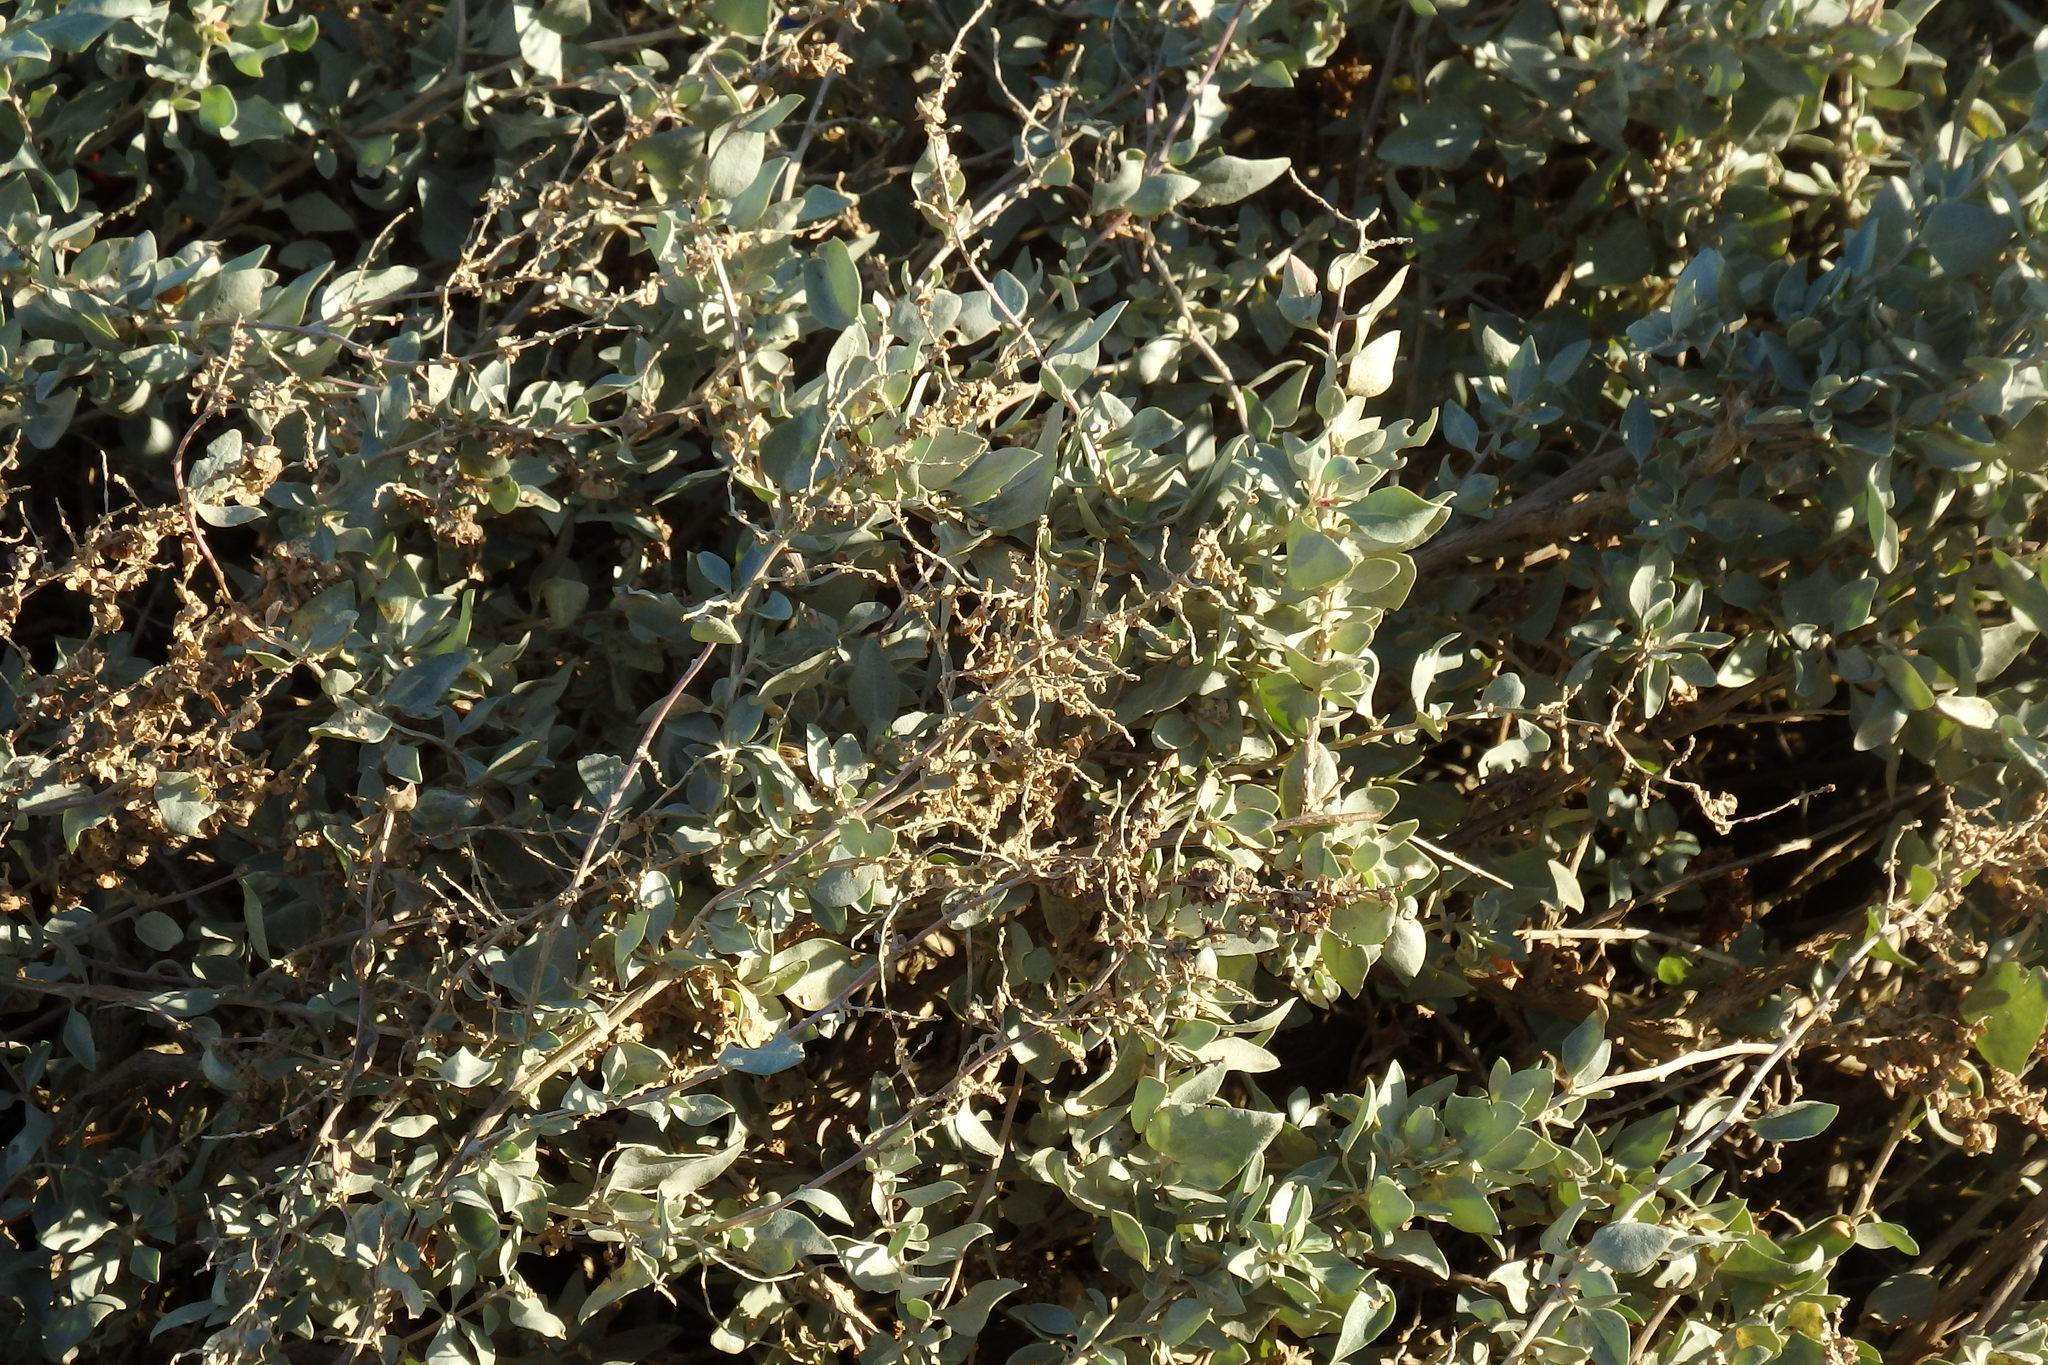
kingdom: Plantae
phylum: Tracheophyta
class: Magnoliopsida
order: Caryophyllales
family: Amaranthaceae
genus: Atriplex
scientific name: Atriplex halimus
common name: Shrubby orache
